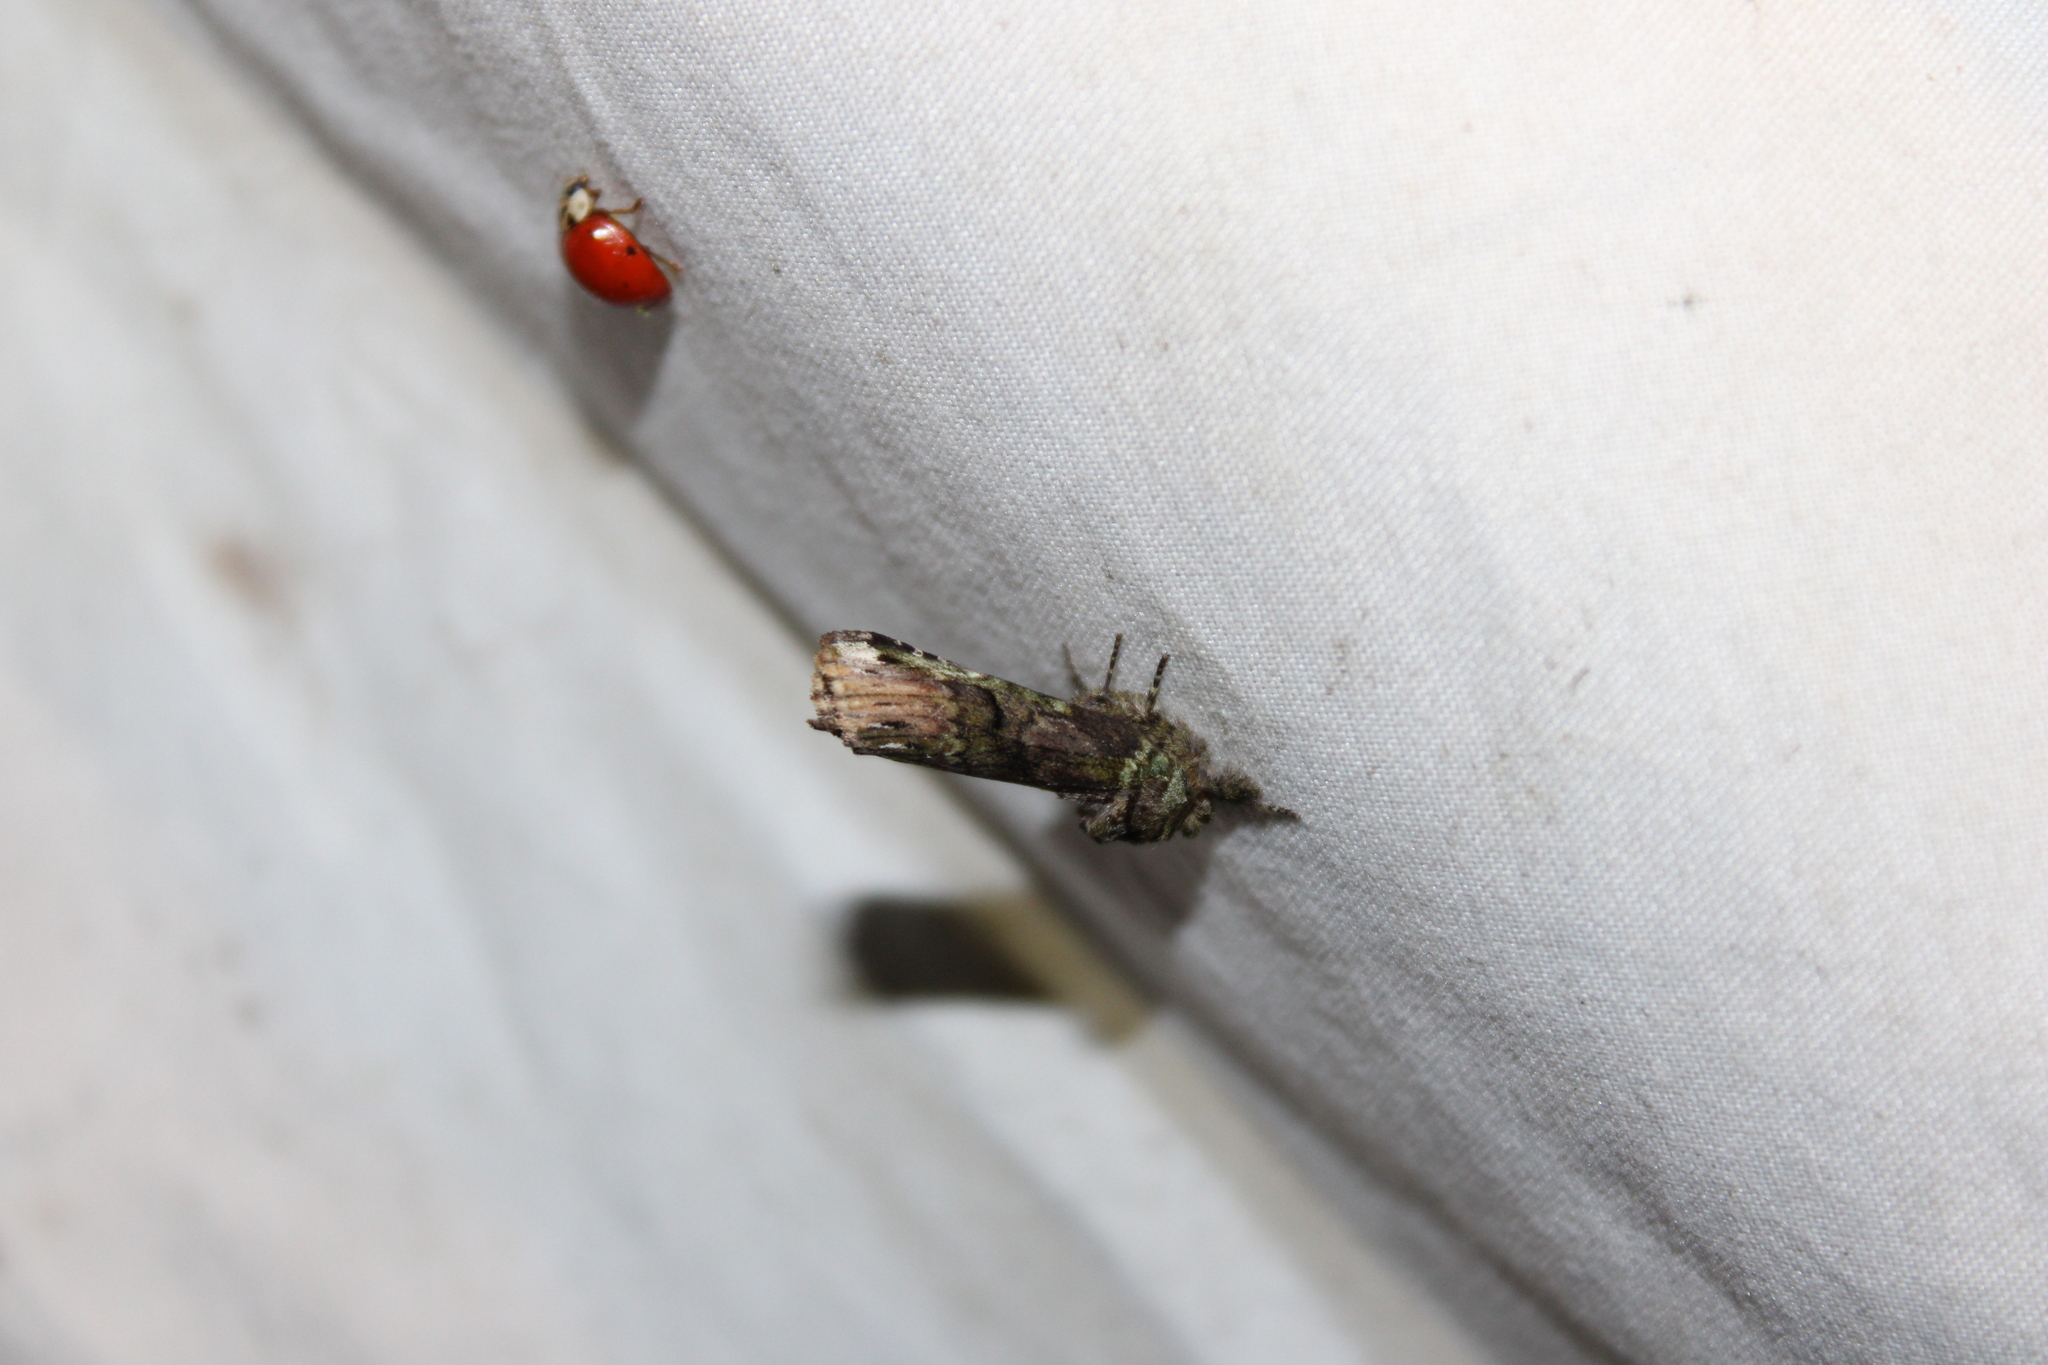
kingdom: Animalia
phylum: Arthropoda
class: Insecta
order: Lepidoptera
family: Notodontidae
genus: Schizura
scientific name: Schizura
